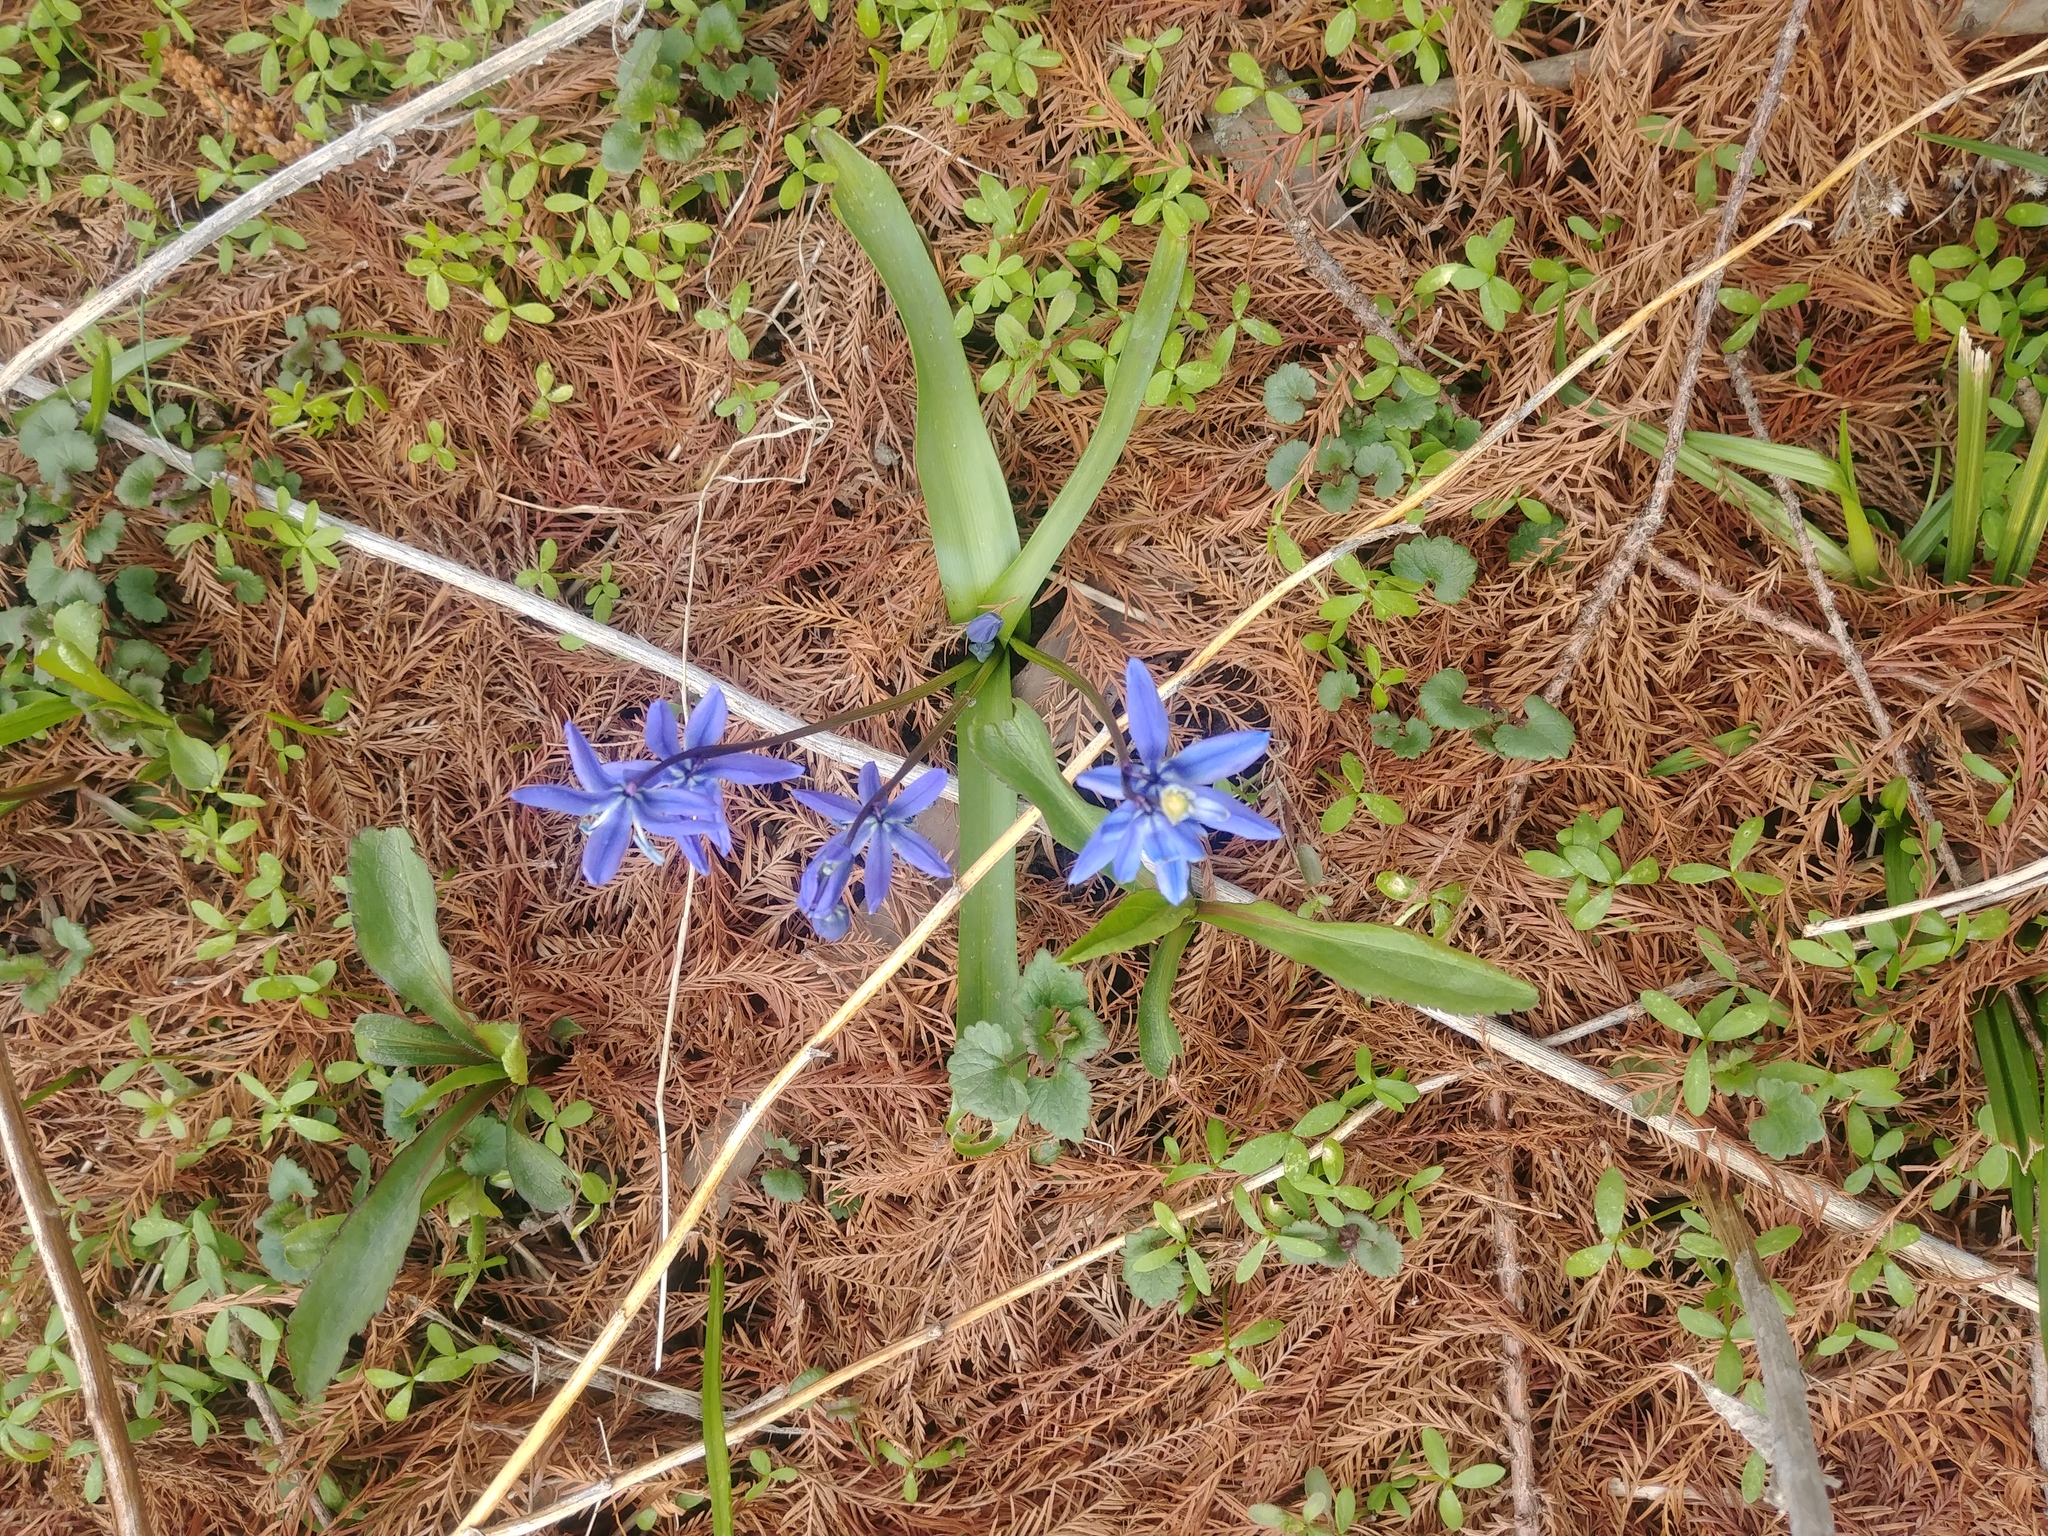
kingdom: Plantae
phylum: Tracheophyta
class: Liliopsida
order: Asparagales
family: Asparagaceae
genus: Scilla
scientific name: Scilla siberica
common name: Siberian squill
